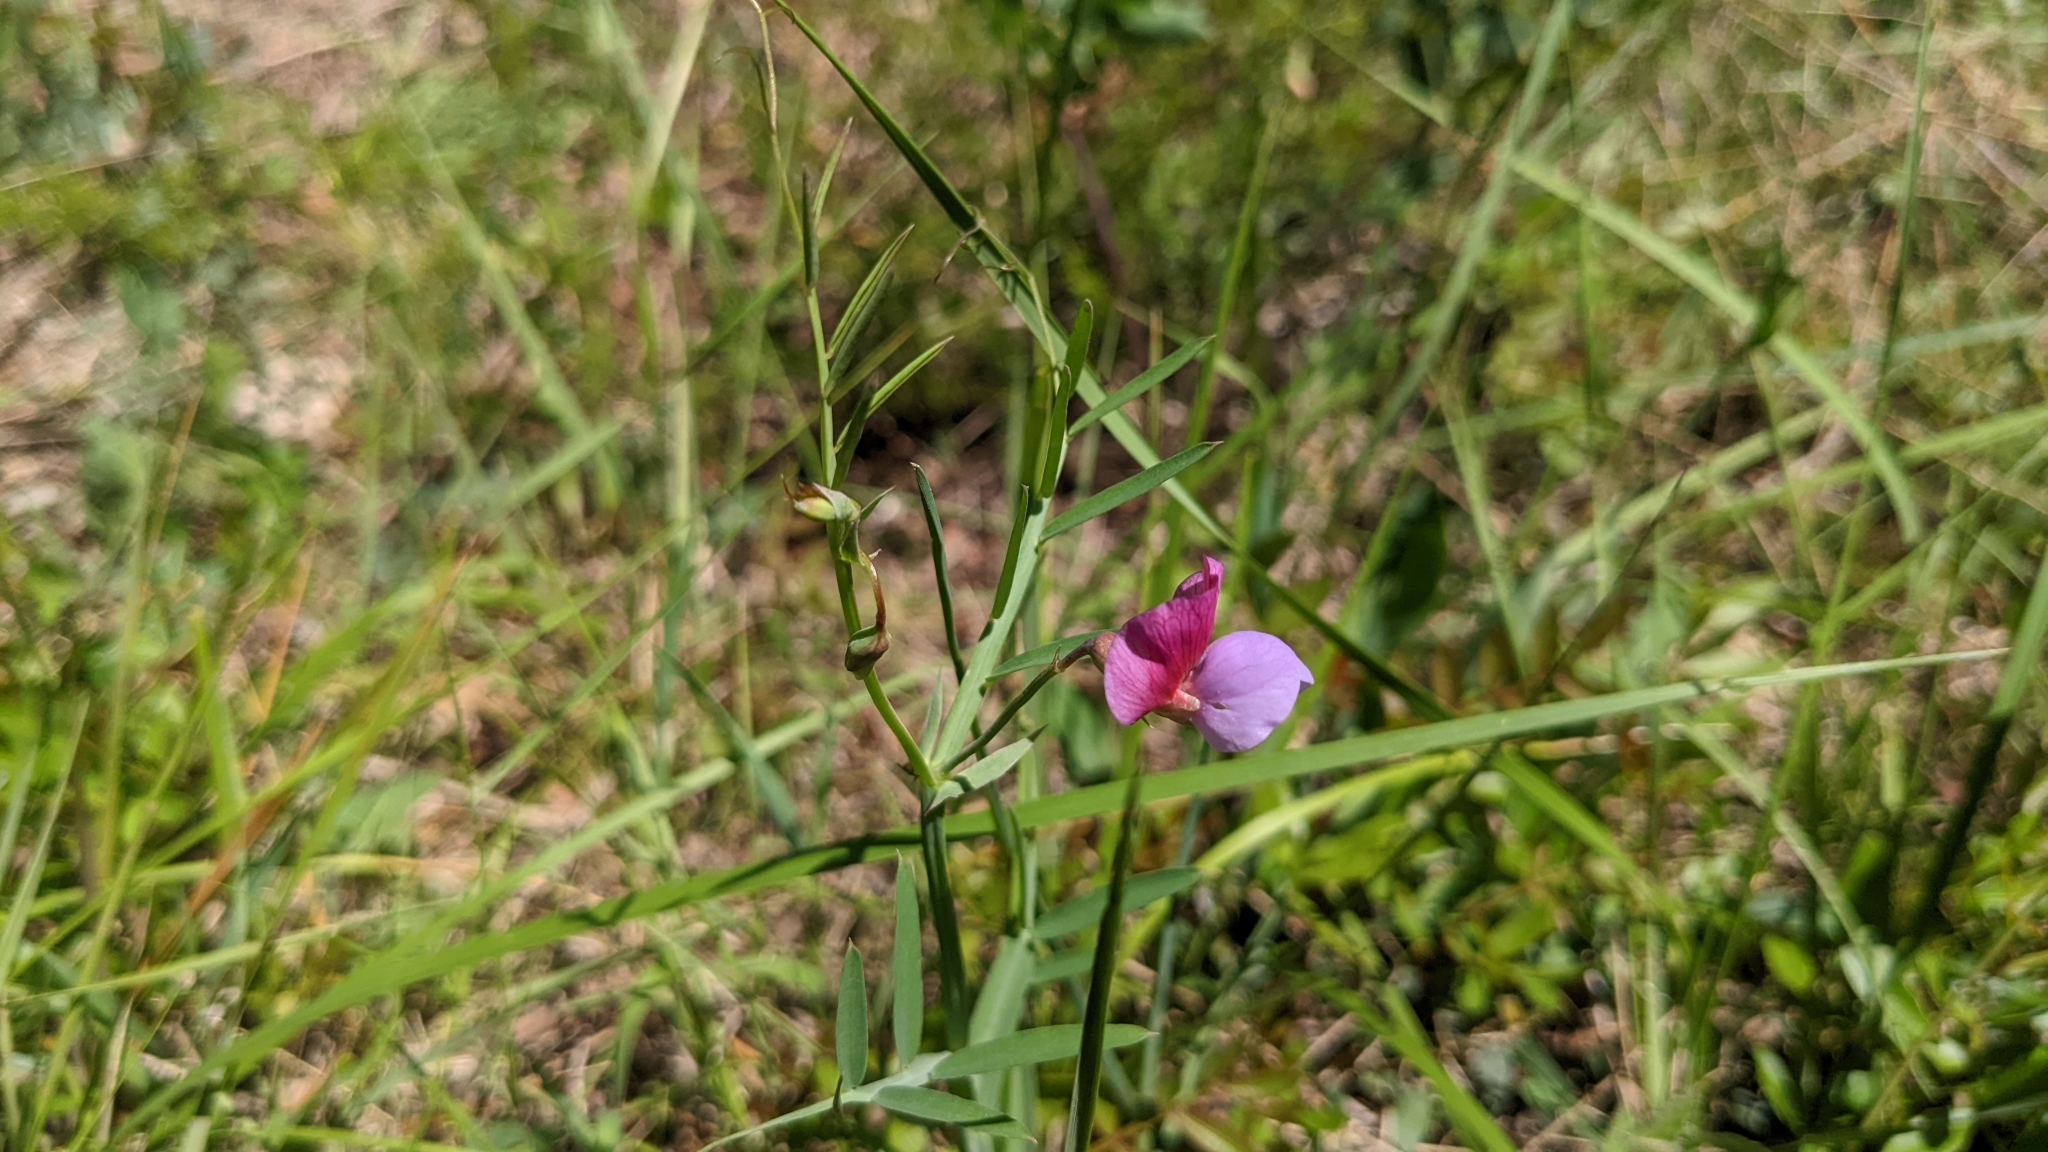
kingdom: Plantae
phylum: Tracheophyta
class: Magnoliopsida
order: Fabales
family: Fabaceae
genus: Lathyrus
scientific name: Lathyrus clymenum
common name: Spanish vetchling
